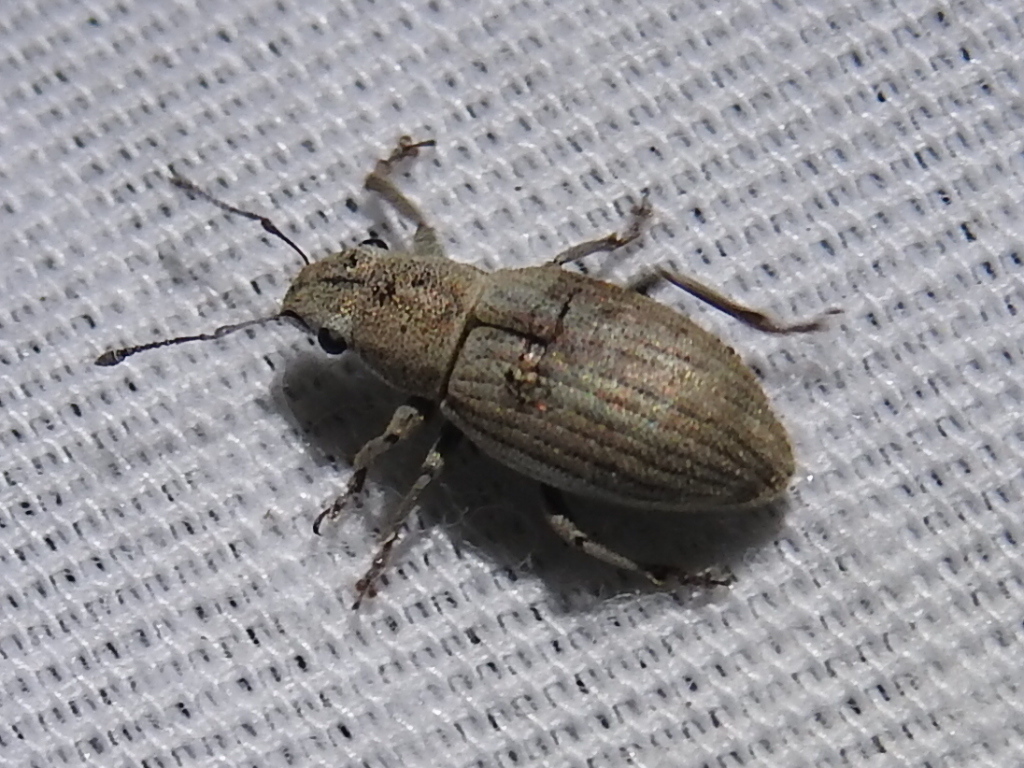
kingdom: Animalia
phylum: Arthropoda
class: Insecta
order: Coleoptera
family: Curculionidae
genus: Aramigus
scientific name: Aramigus tessellatus
